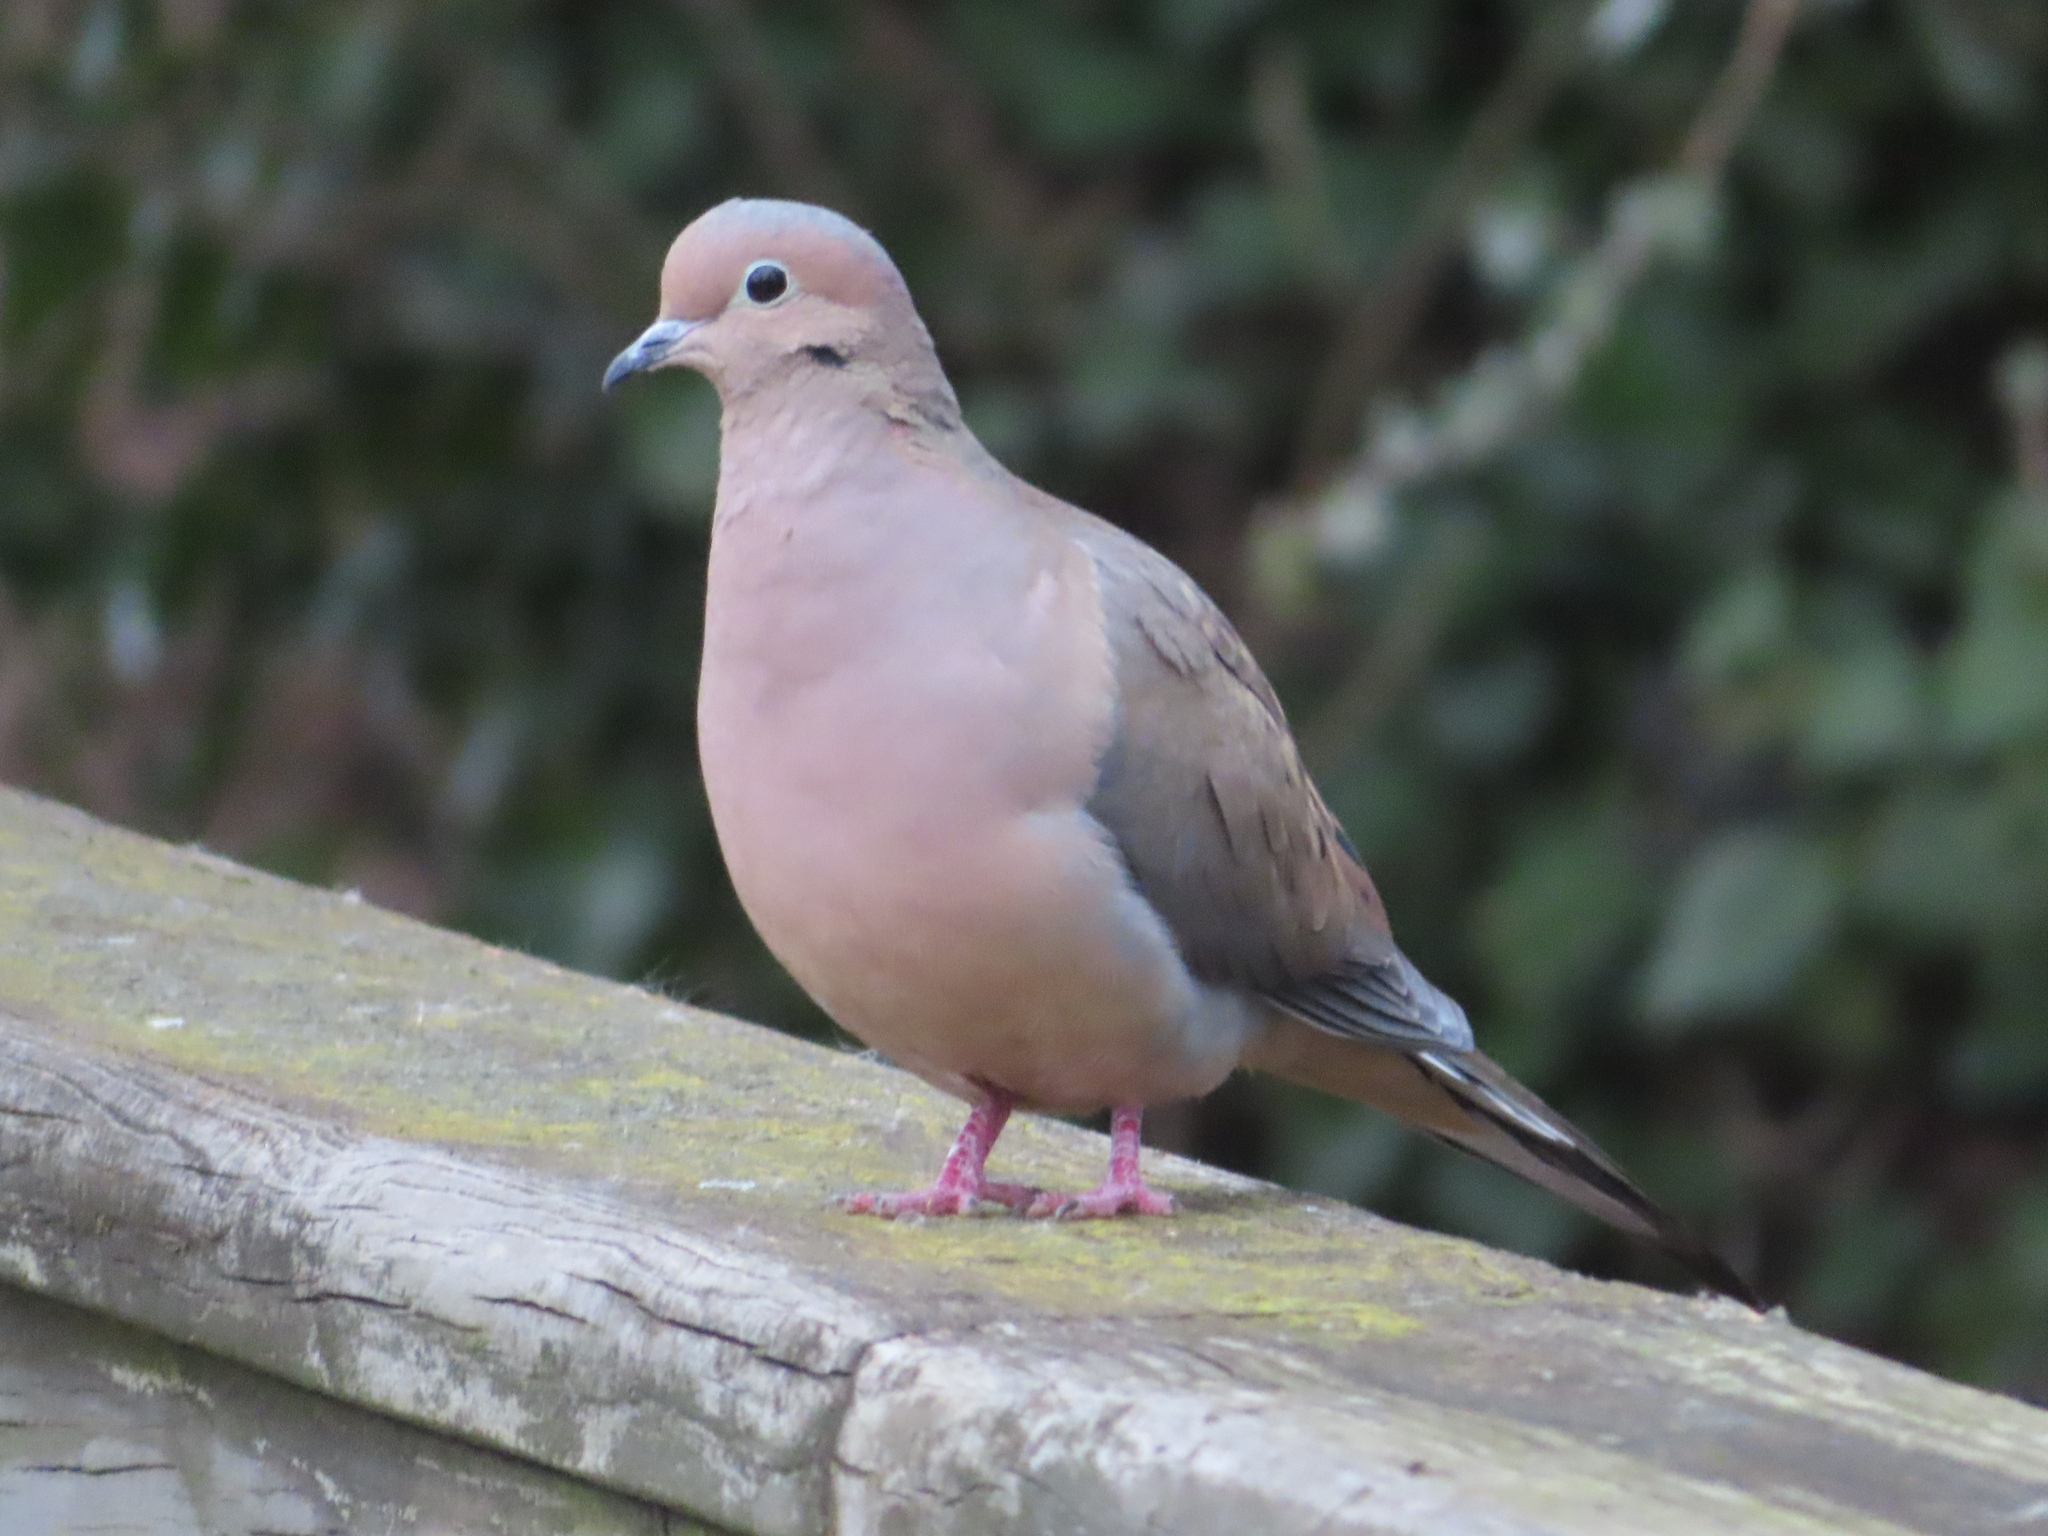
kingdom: Animalia
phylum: Chordata
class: Aves
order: Columbiformes
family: Columbidae
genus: Zenaida
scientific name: Zenaida macroura
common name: Mourning dove
